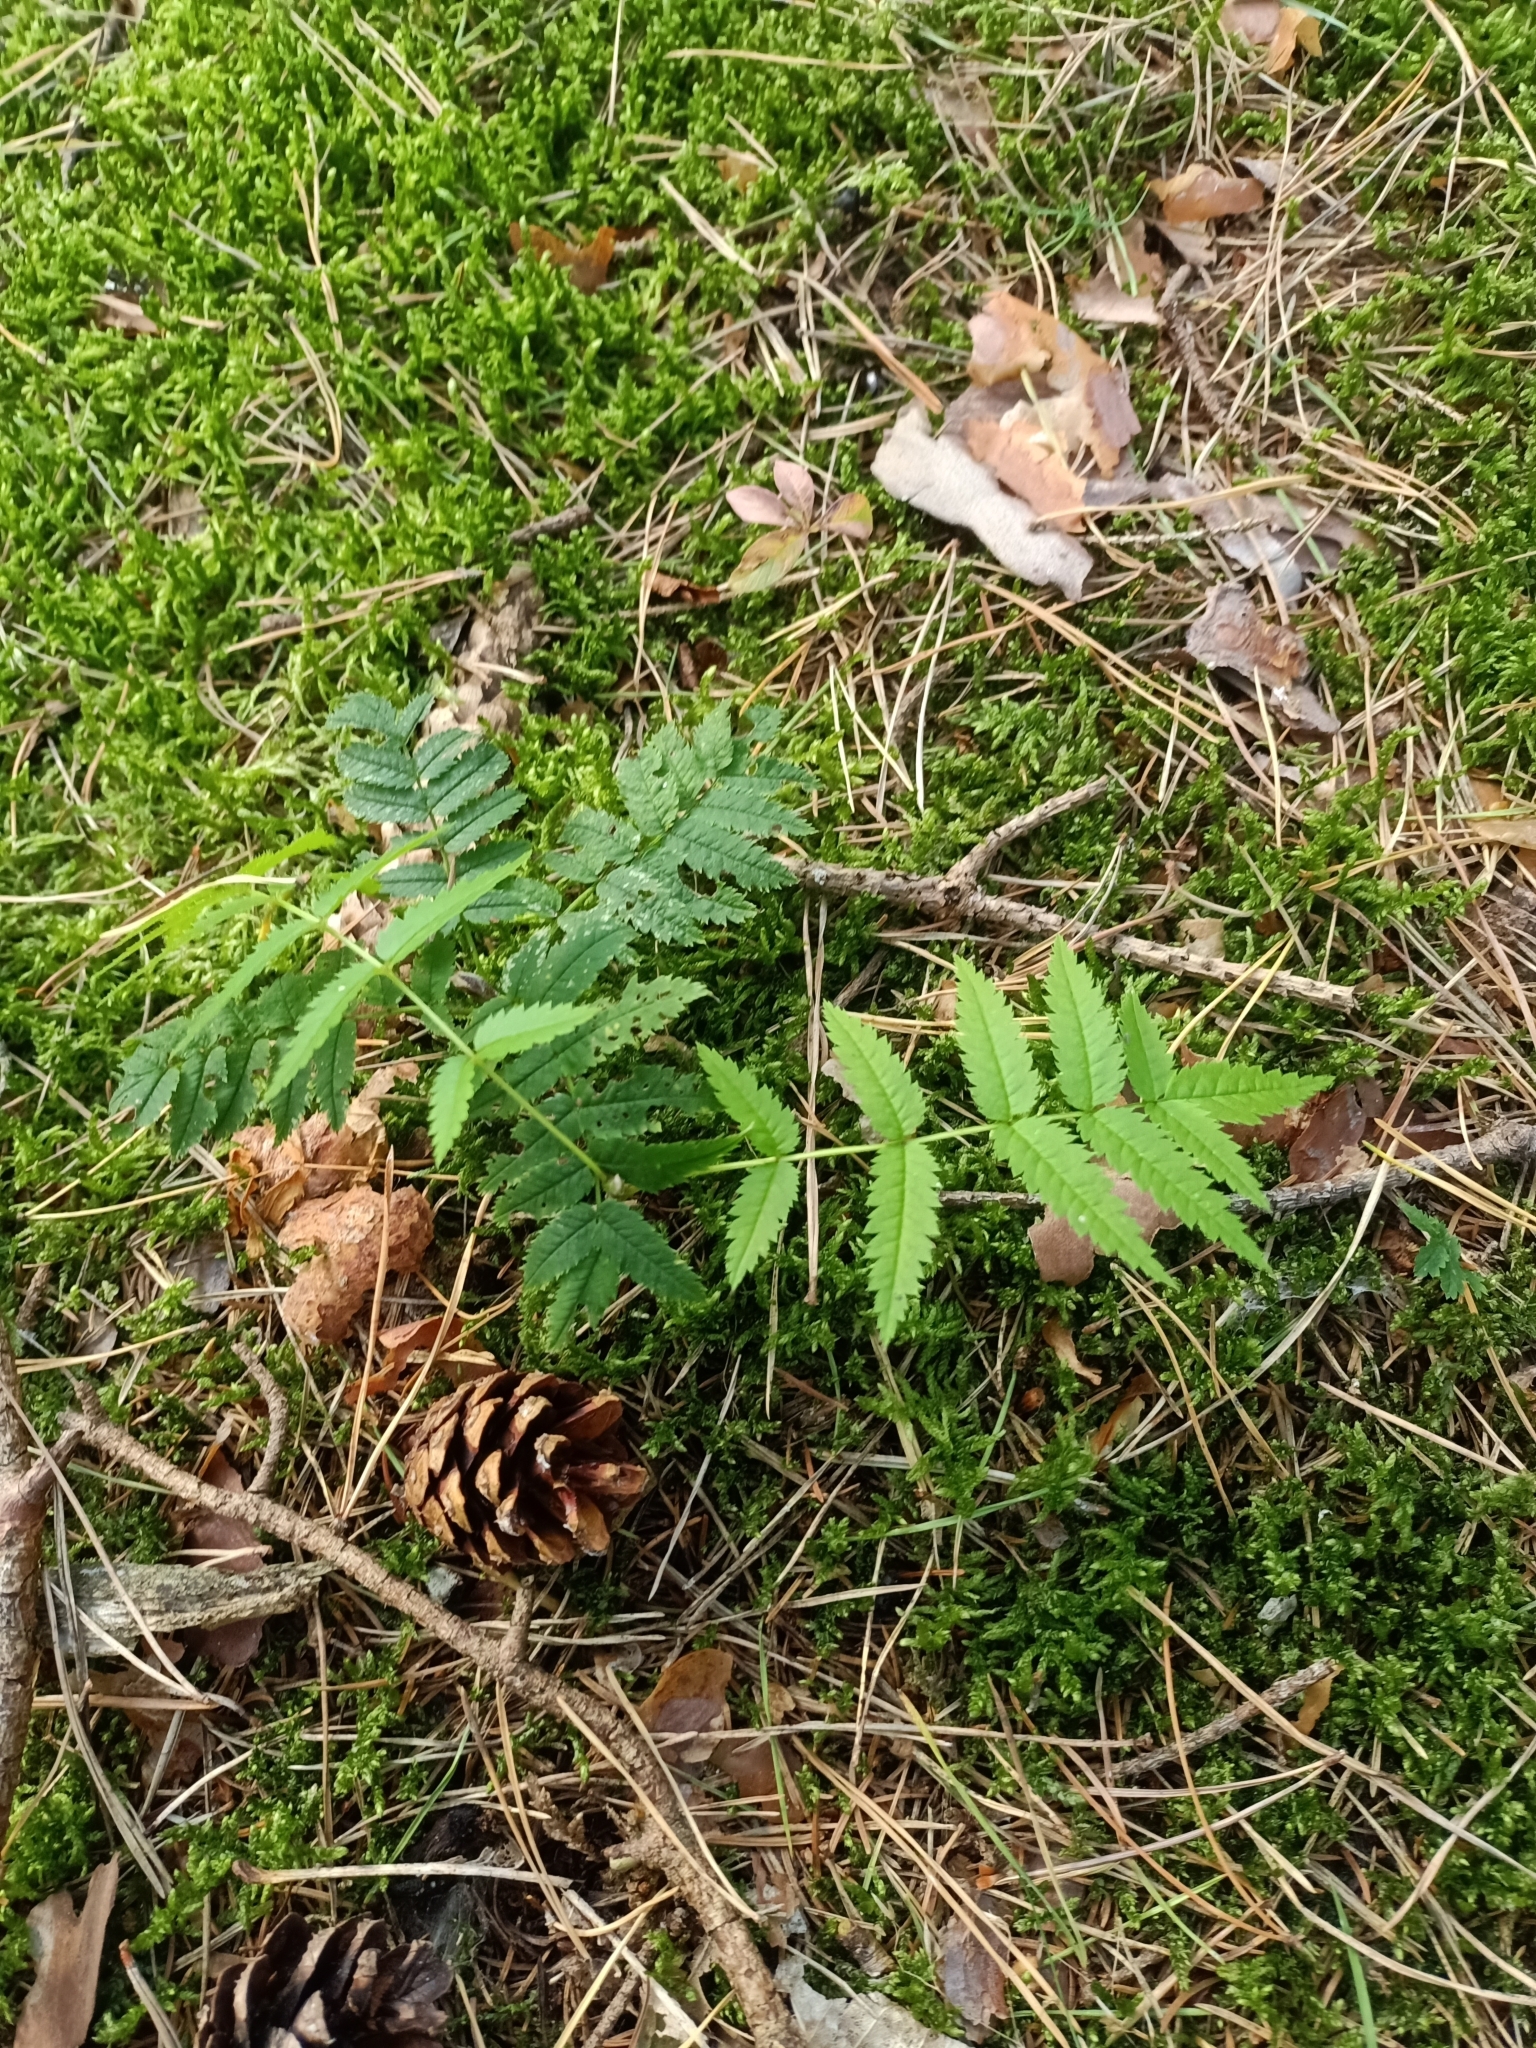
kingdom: Plantae
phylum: Tracheophyta
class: Magnoliopsida
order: Rosales
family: Rosaceae
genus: Sorbus
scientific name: Sorbus aucuparia
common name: Rowan
